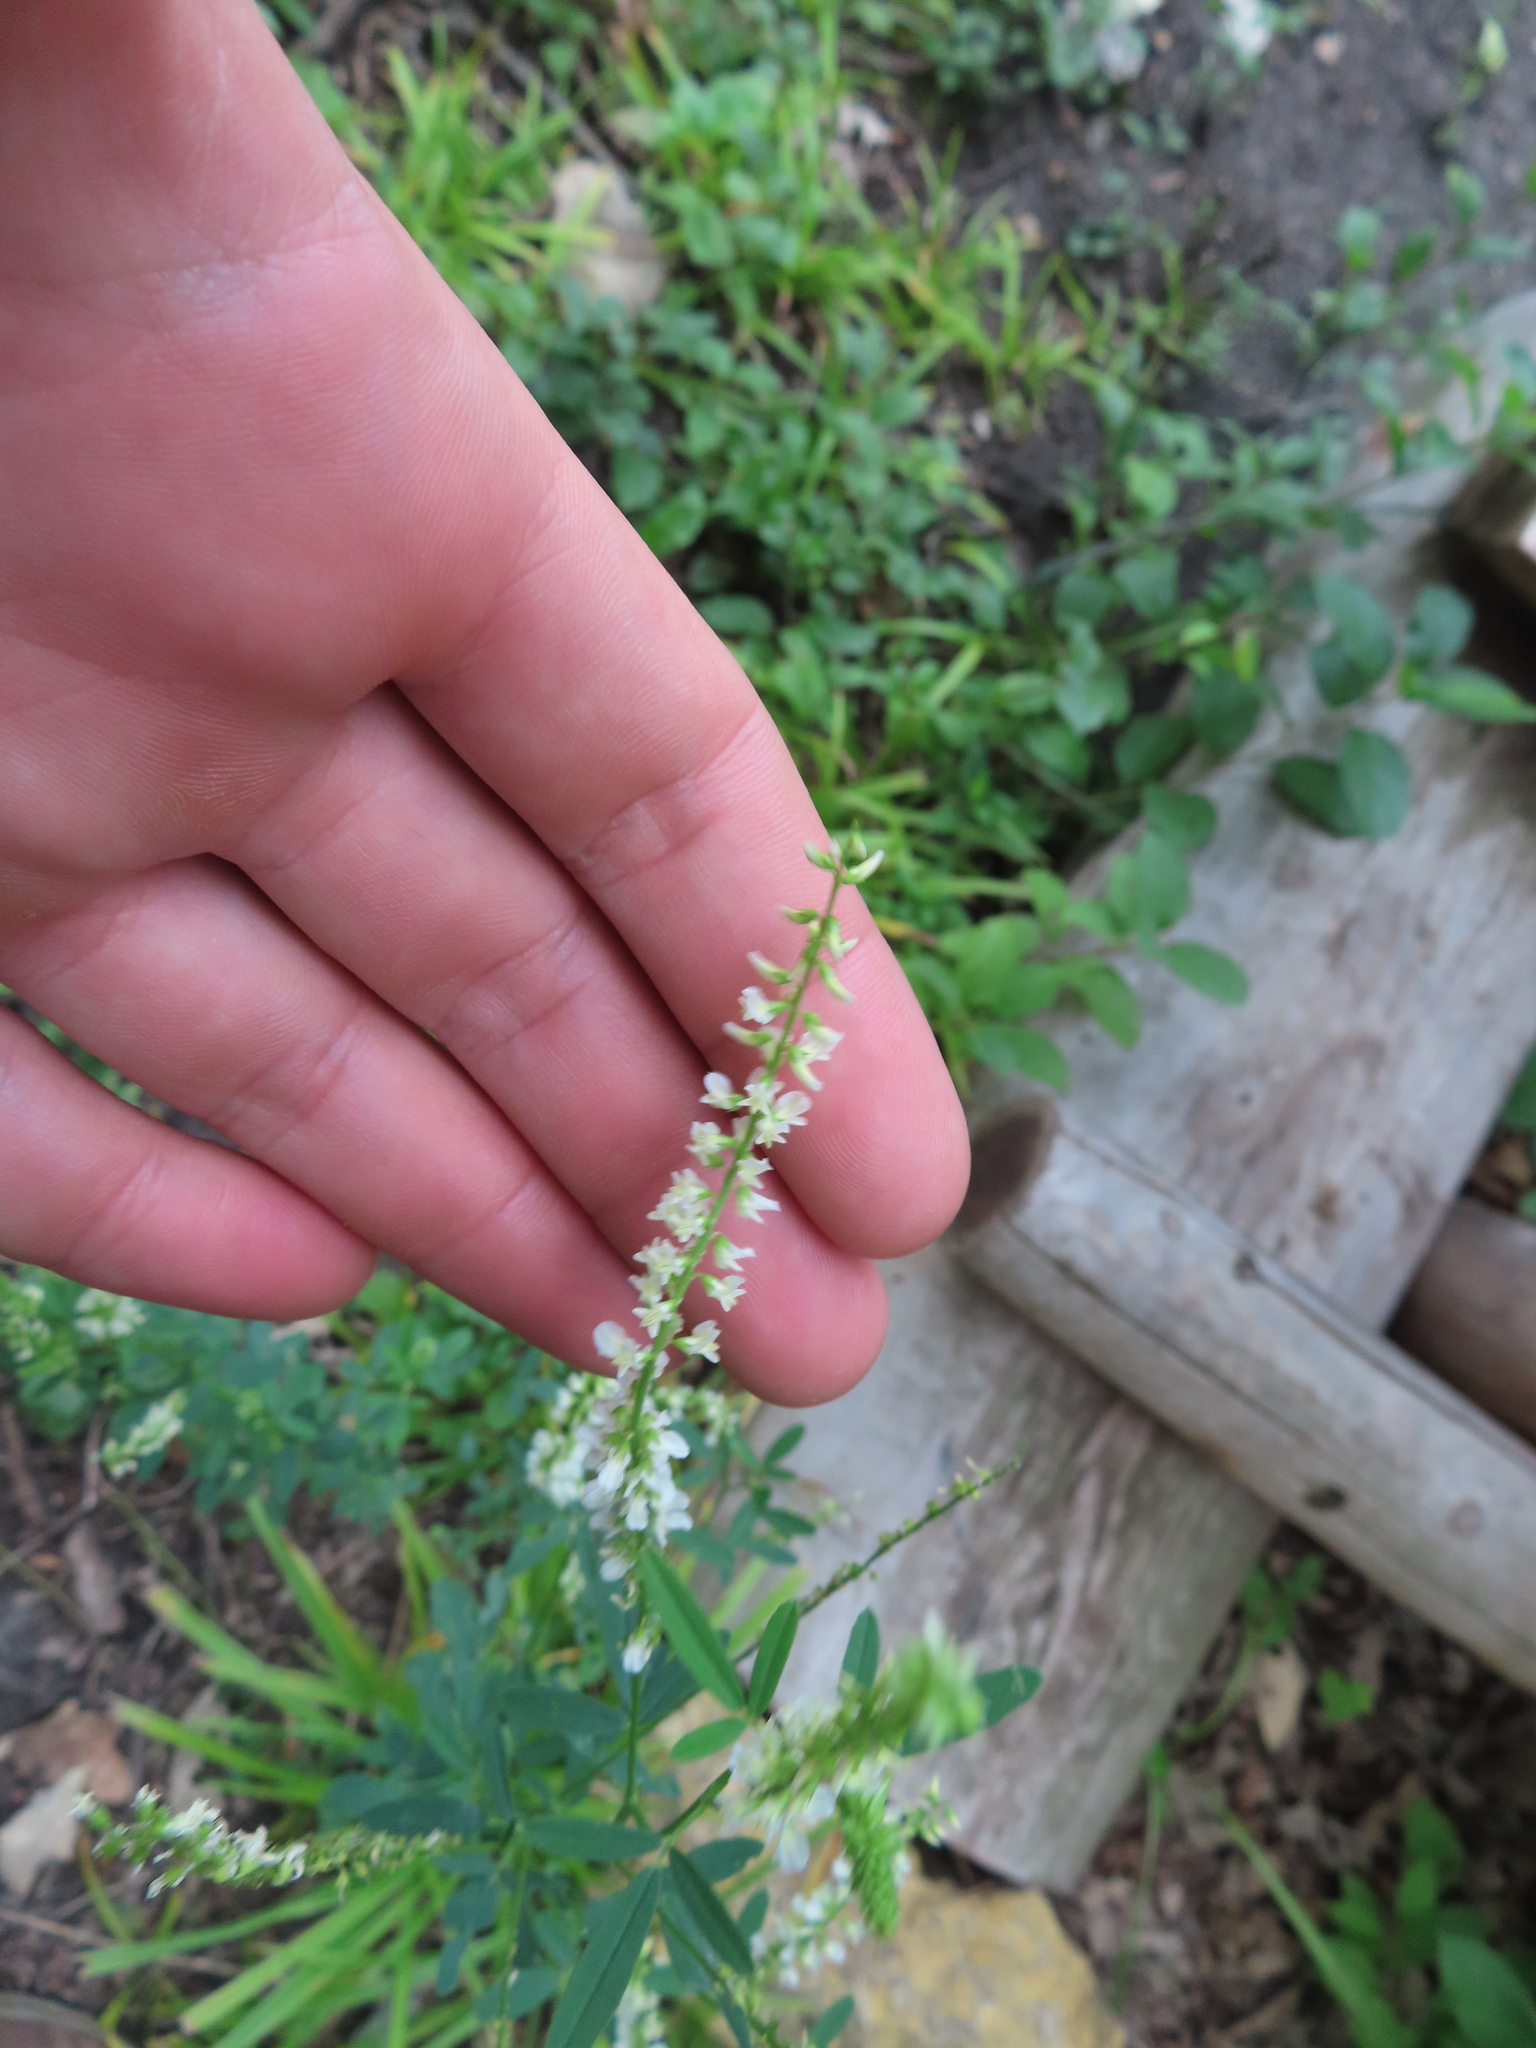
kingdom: Plantae
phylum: Tracheophyta
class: Magnoliopsida
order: Fabales
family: Fabaceae
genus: Melilotus
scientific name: Melilotus albus
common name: White melilot
